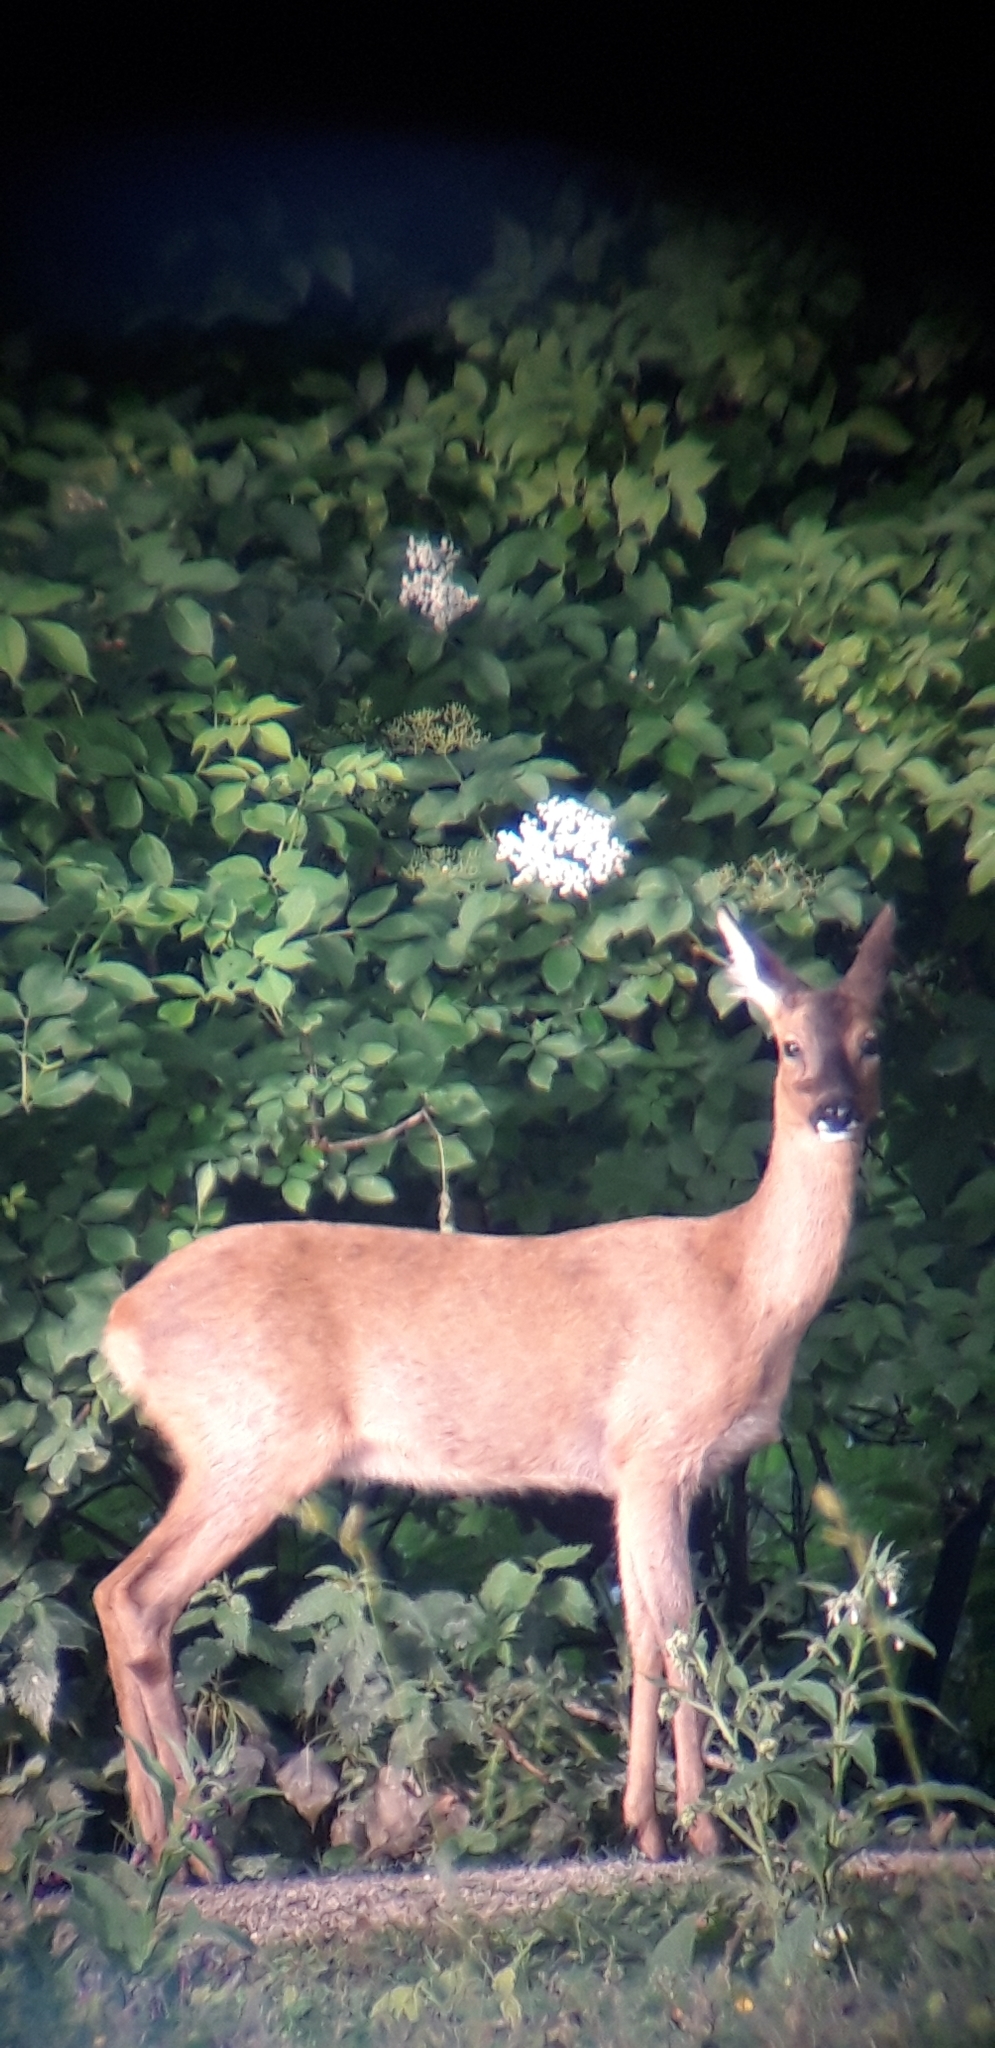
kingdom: Animalia
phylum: Chordata
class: Mammalia
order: Artiodactyla
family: Cervidae
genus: Capreolus
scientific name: Capreolus capreolus
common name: Western roe deer
